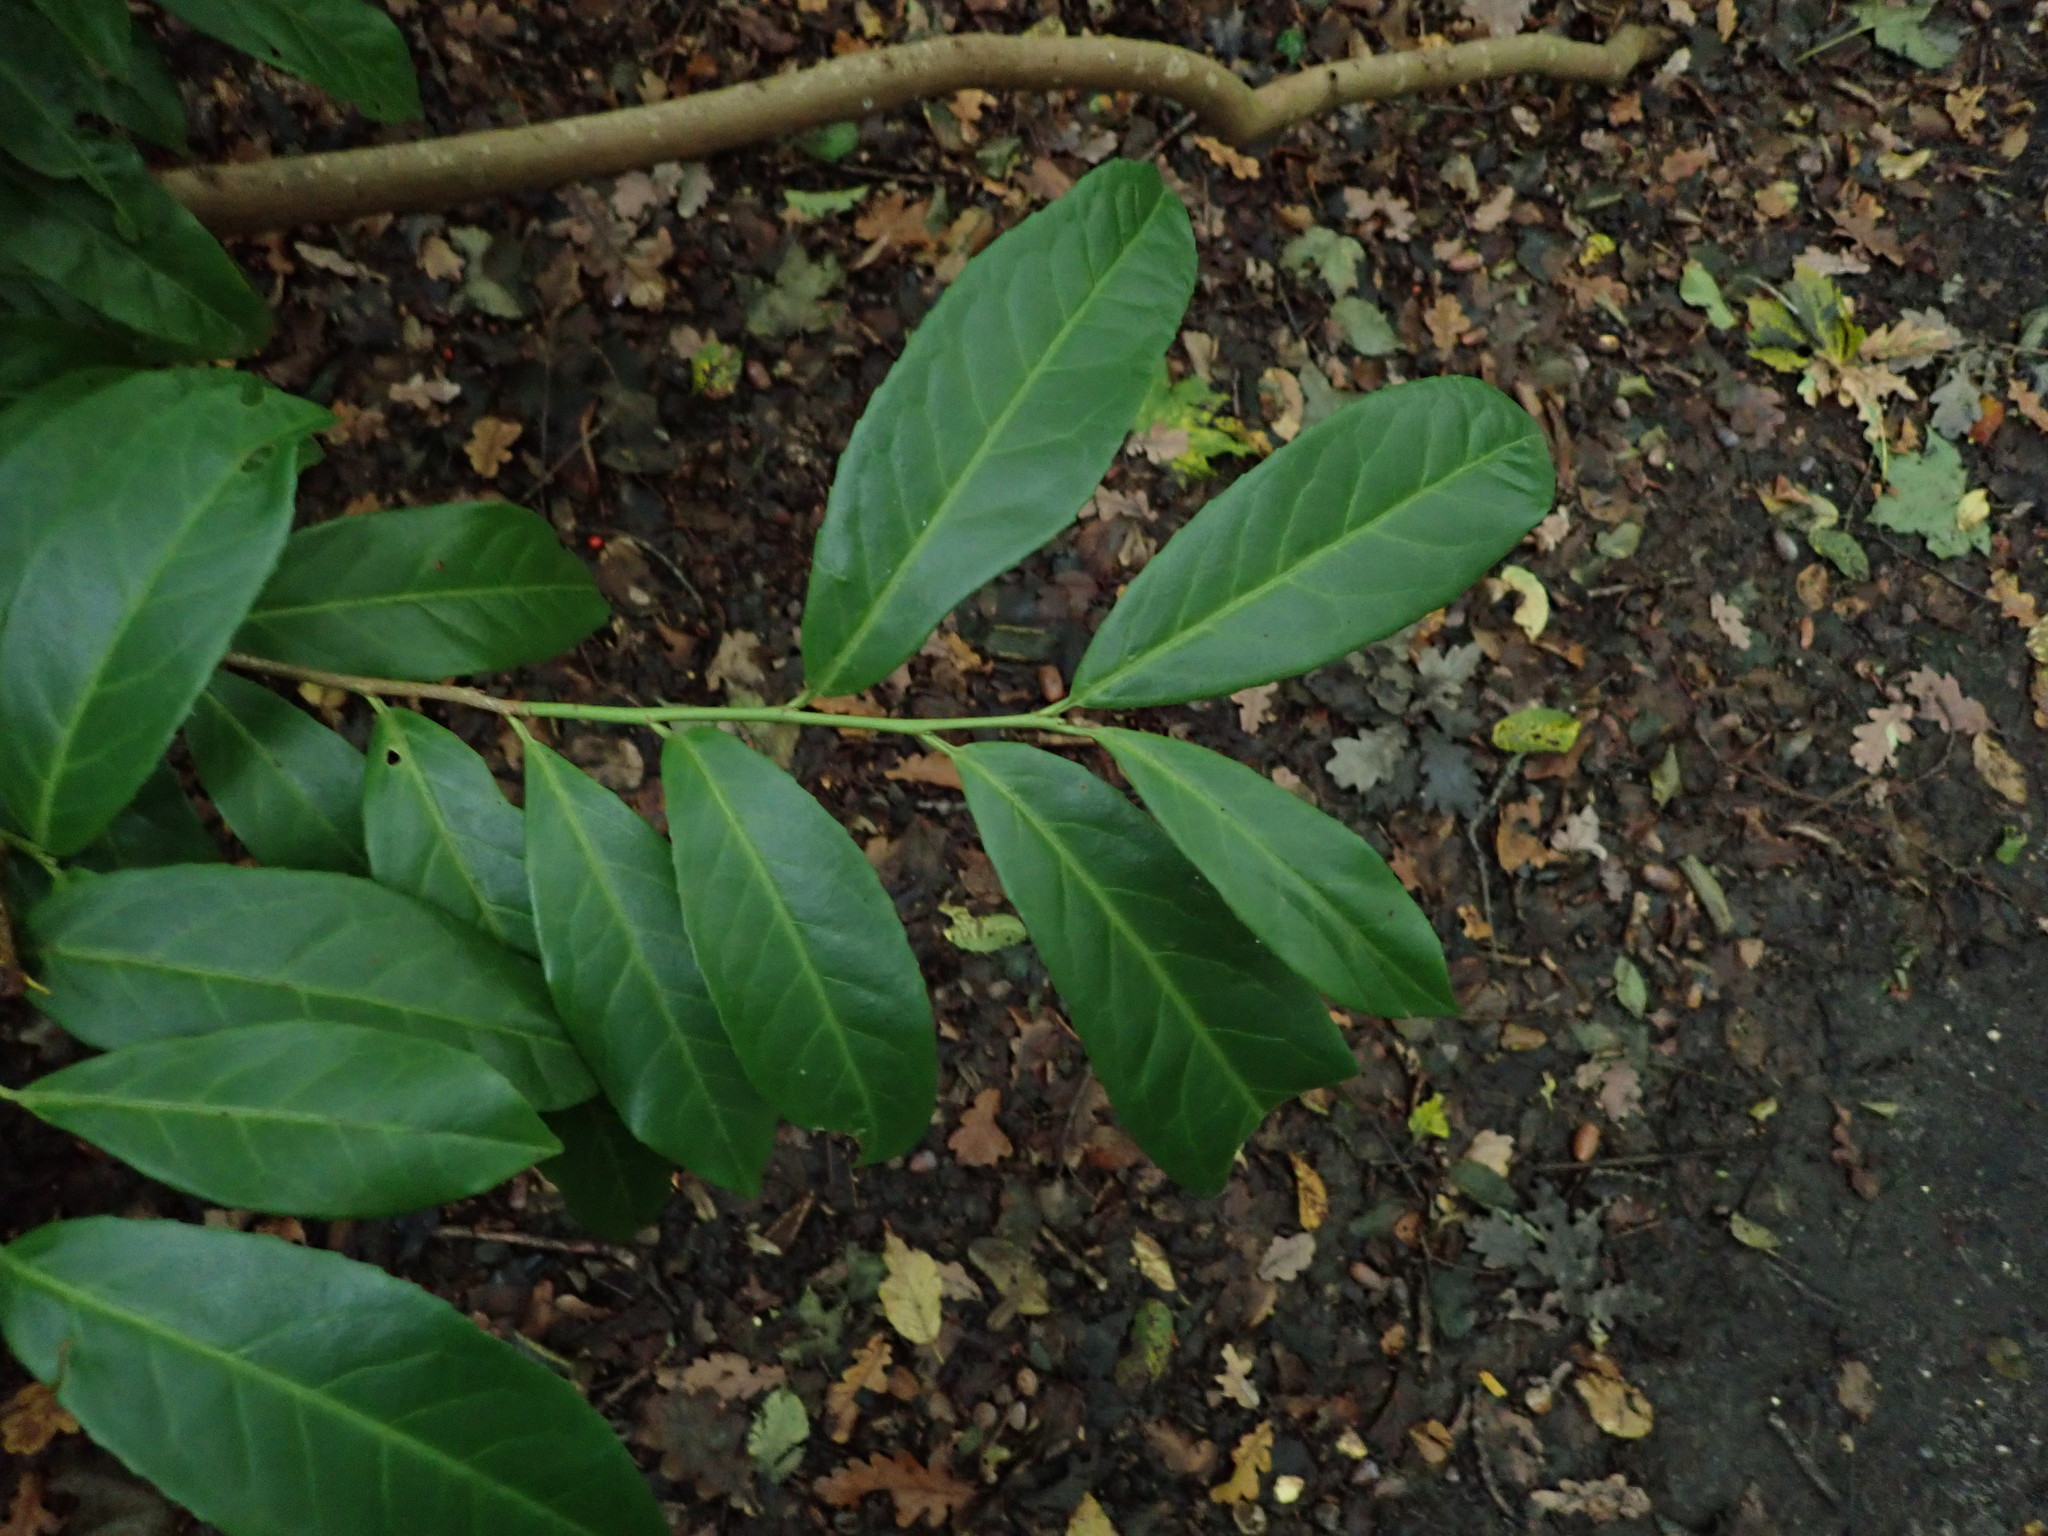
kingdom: Plantae
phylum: Tracheophyta
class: Magnoliopsida
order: Rosales
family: Rosaceae
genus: Prunus
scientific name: Prunus laurocerasus
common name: Cherry laurel
